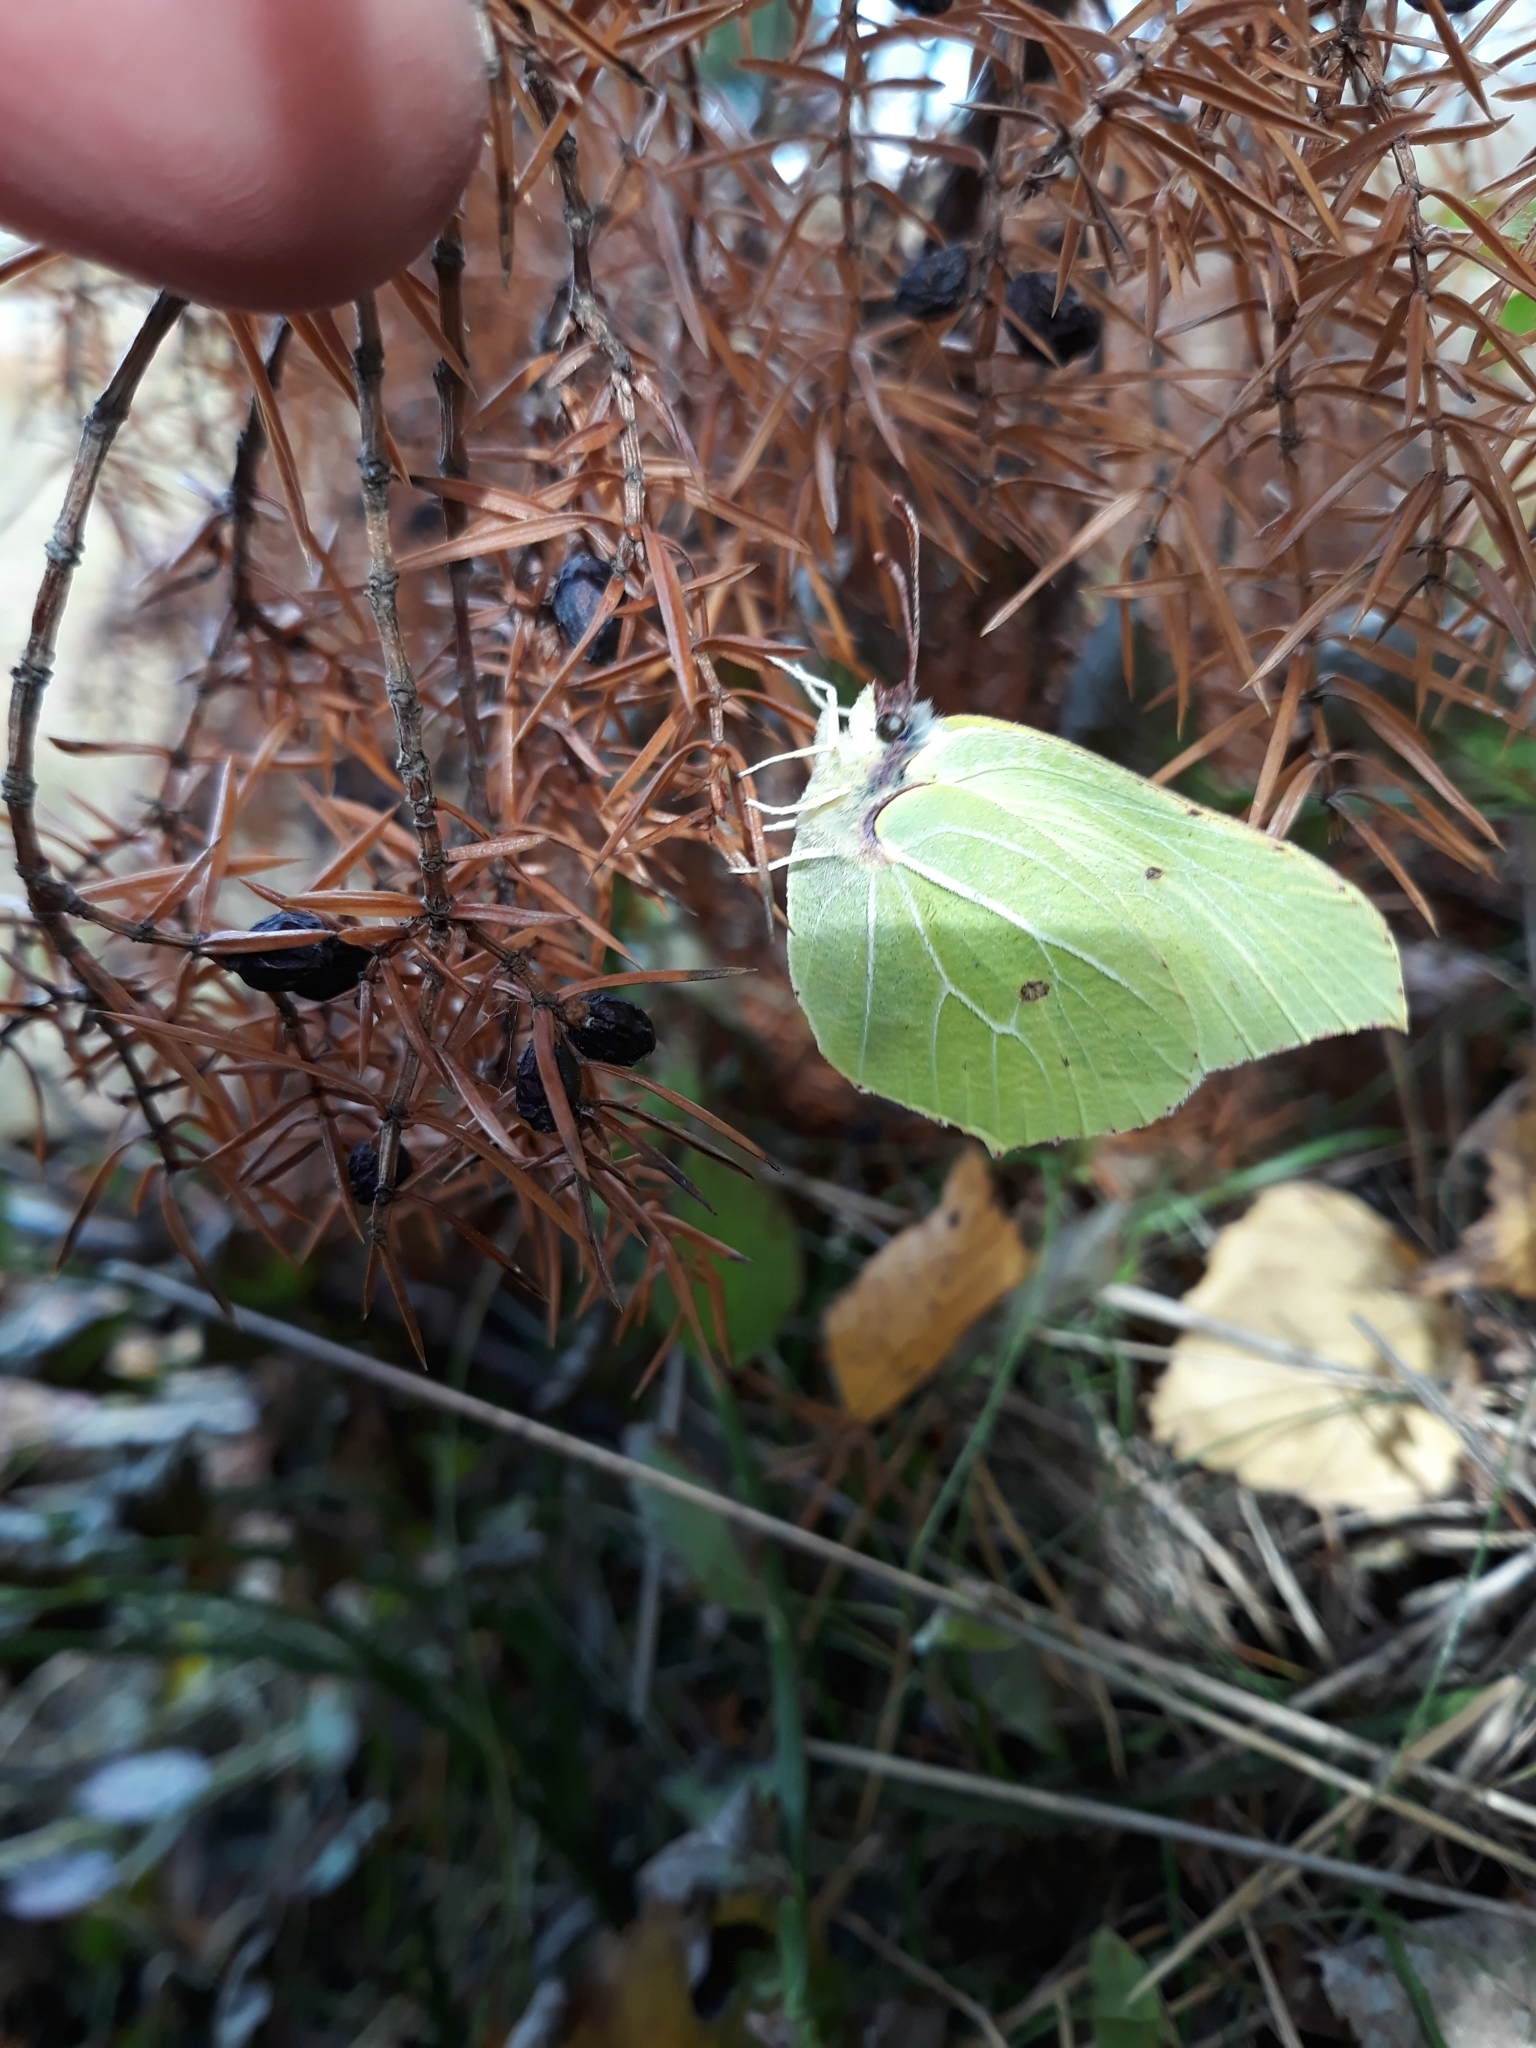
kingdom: Animalia
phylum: Arthropoda
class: Insecta
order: Lepidoptera
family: Pieridae
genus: Gonepteryx
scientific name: Gonepteryx rhamni
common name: Brimstone
